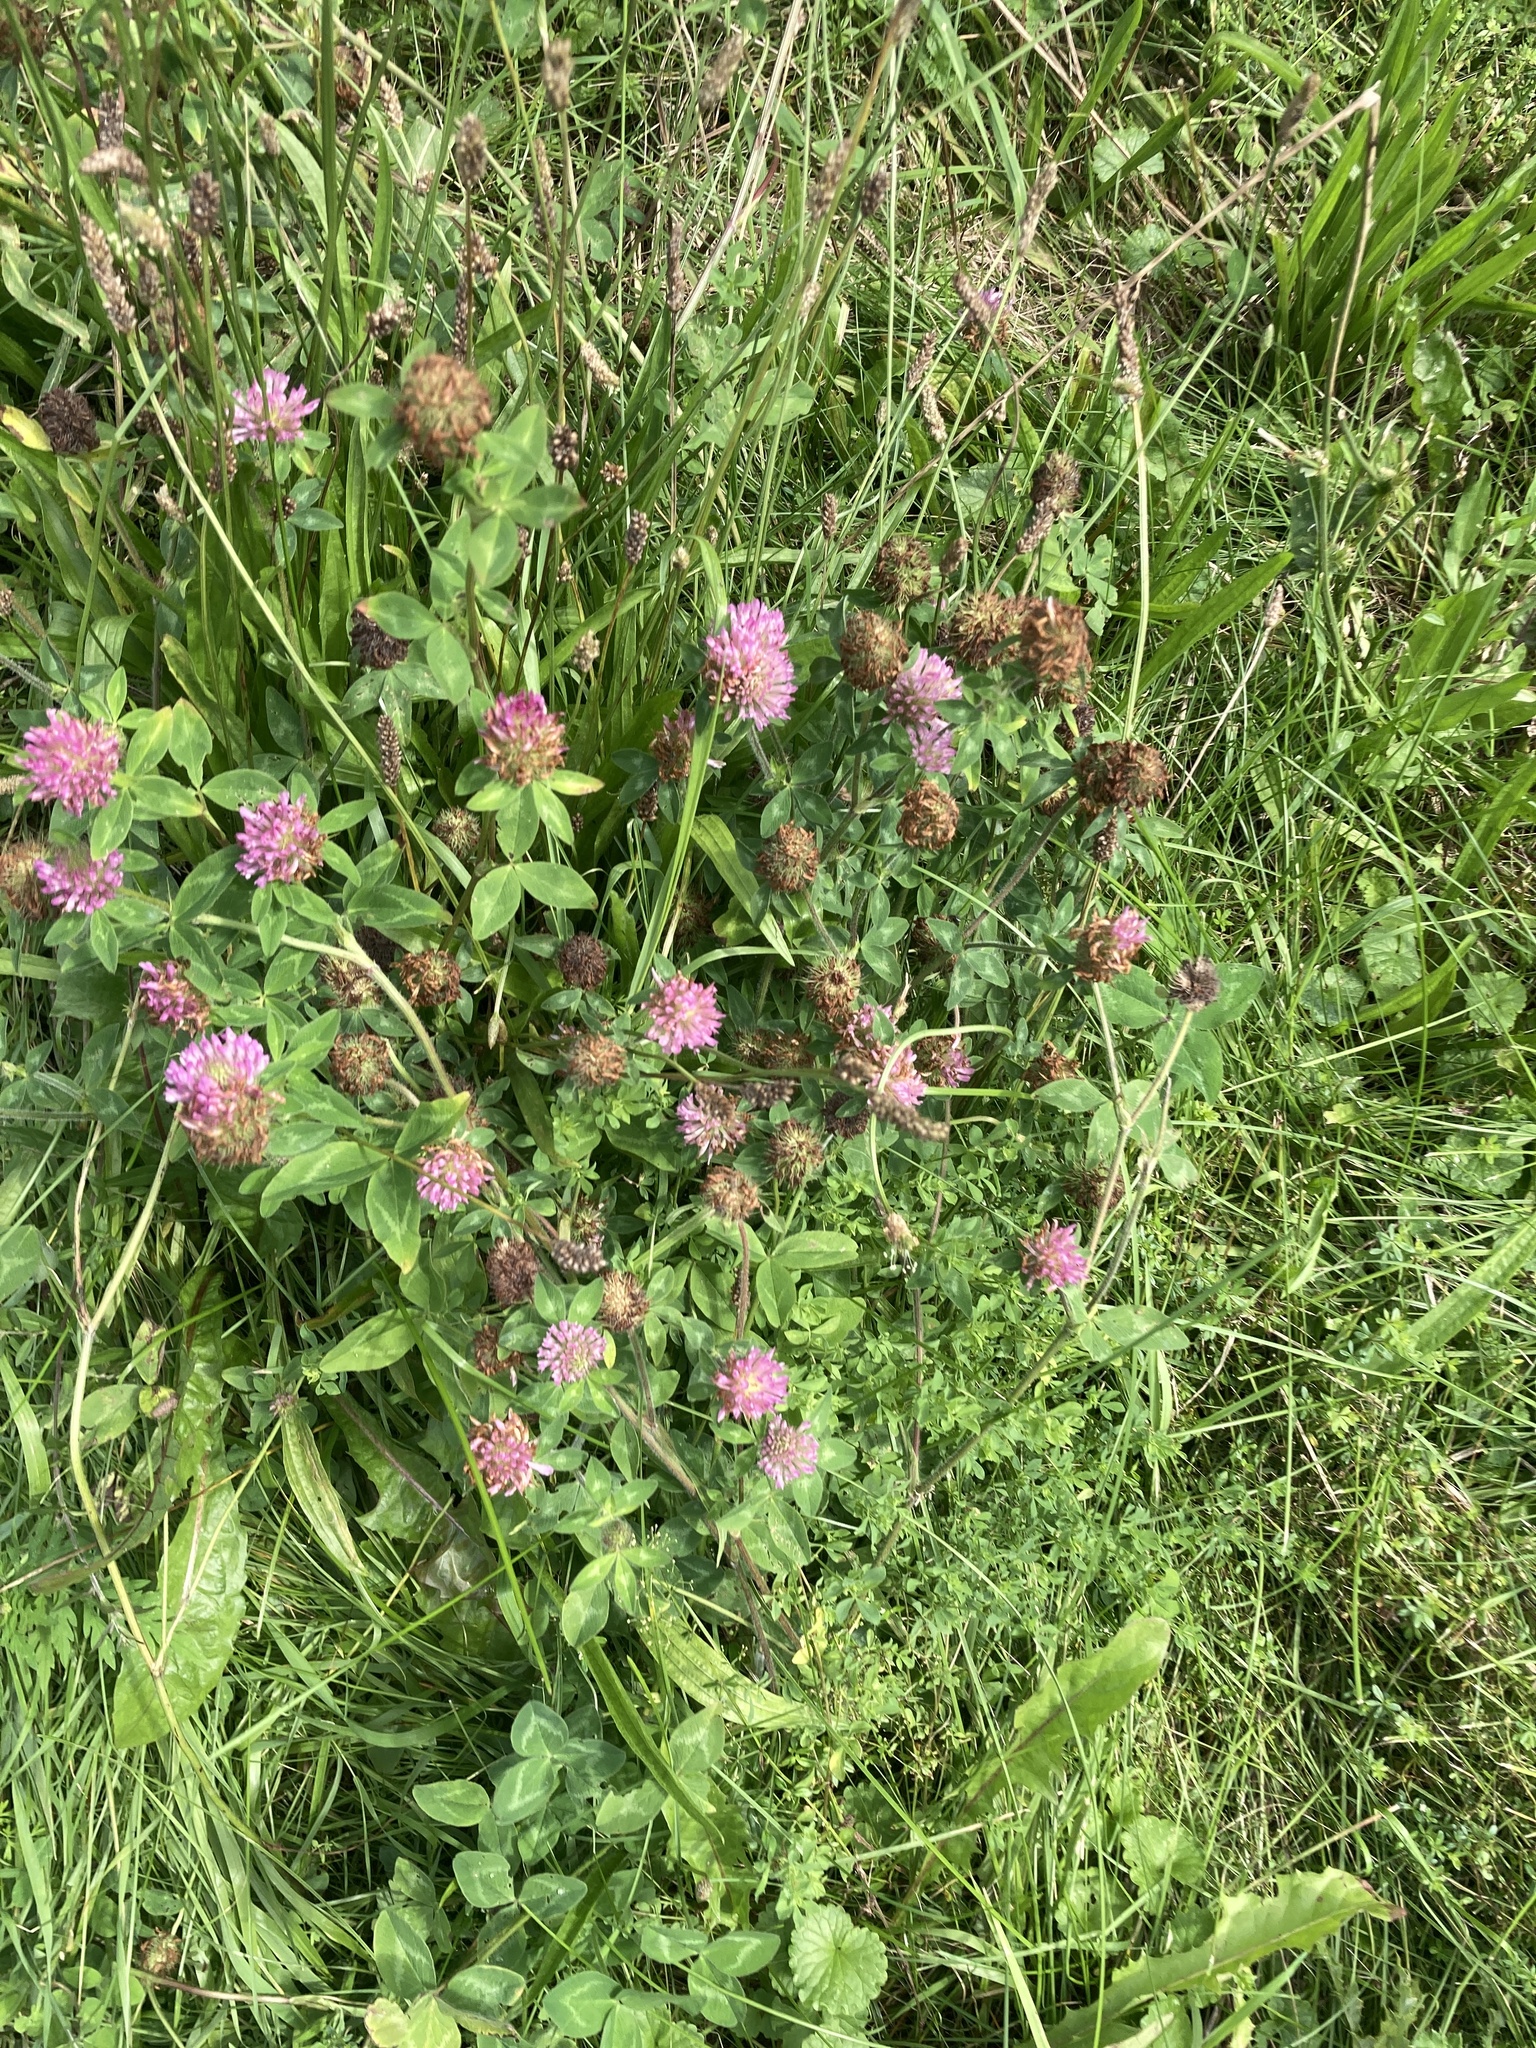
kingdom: Plantae
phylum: Tracheophyta
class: Magnoliopsida
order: Fabales
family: Fabaceae
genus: Trifolium
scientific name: Trifolium pratense
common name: Red clover
